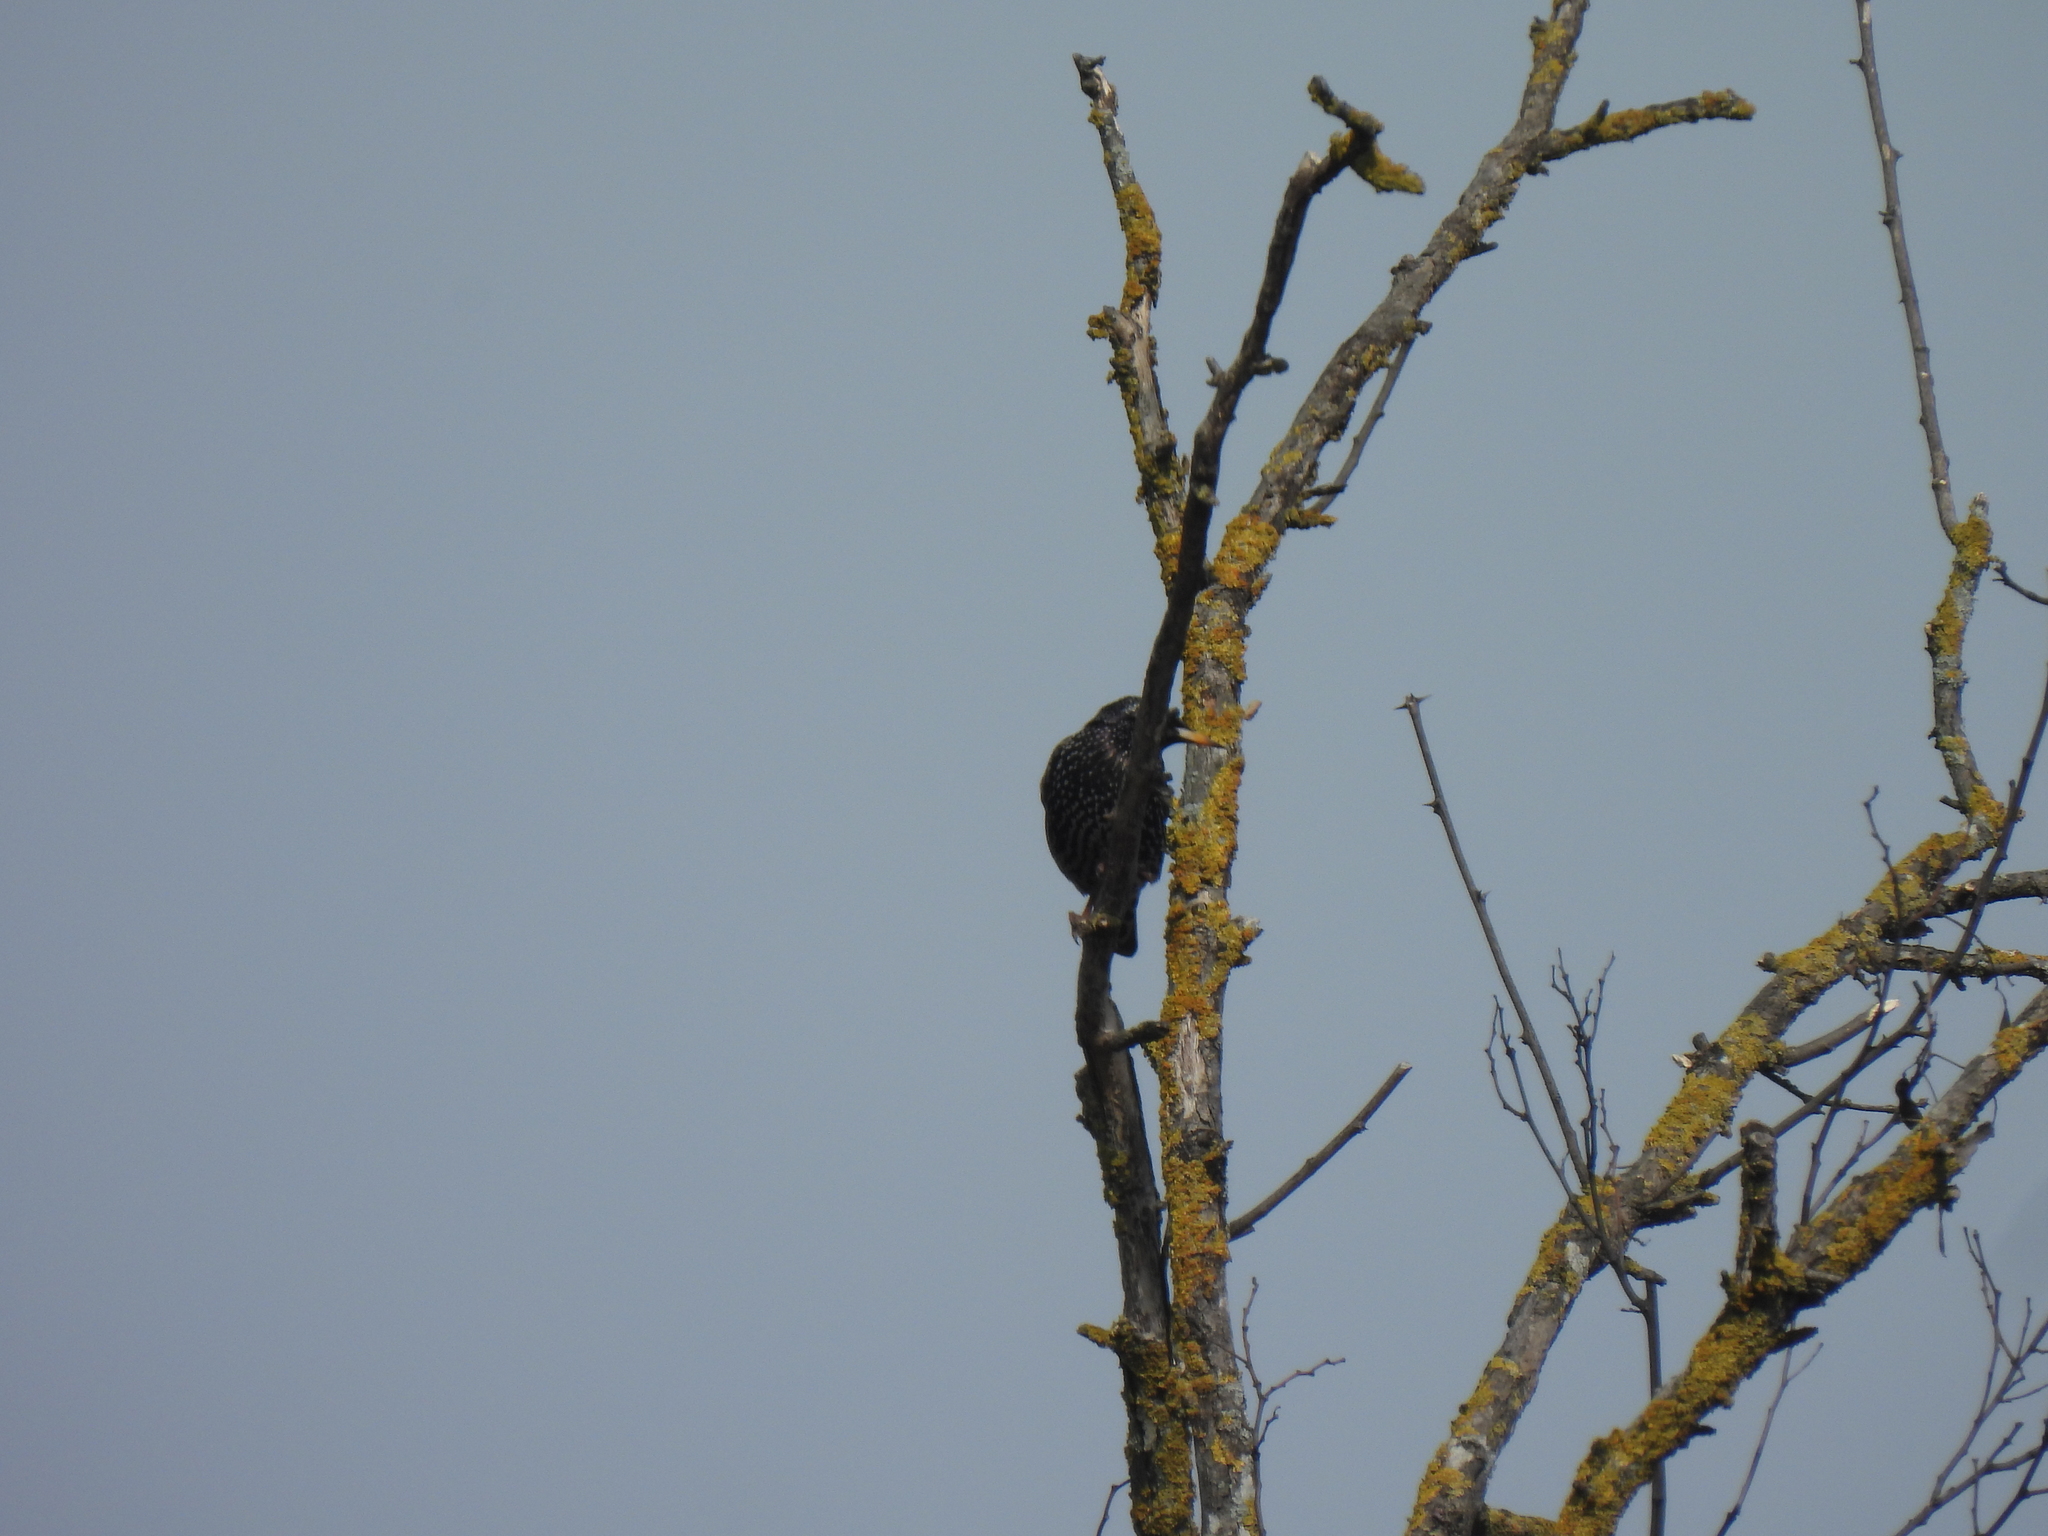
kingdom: Animalia
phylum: Chordata
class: Aves
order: Passeriformes
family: Sturnidae
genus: Sturnus
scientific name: Sturnus vulgaris
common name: Common starling
